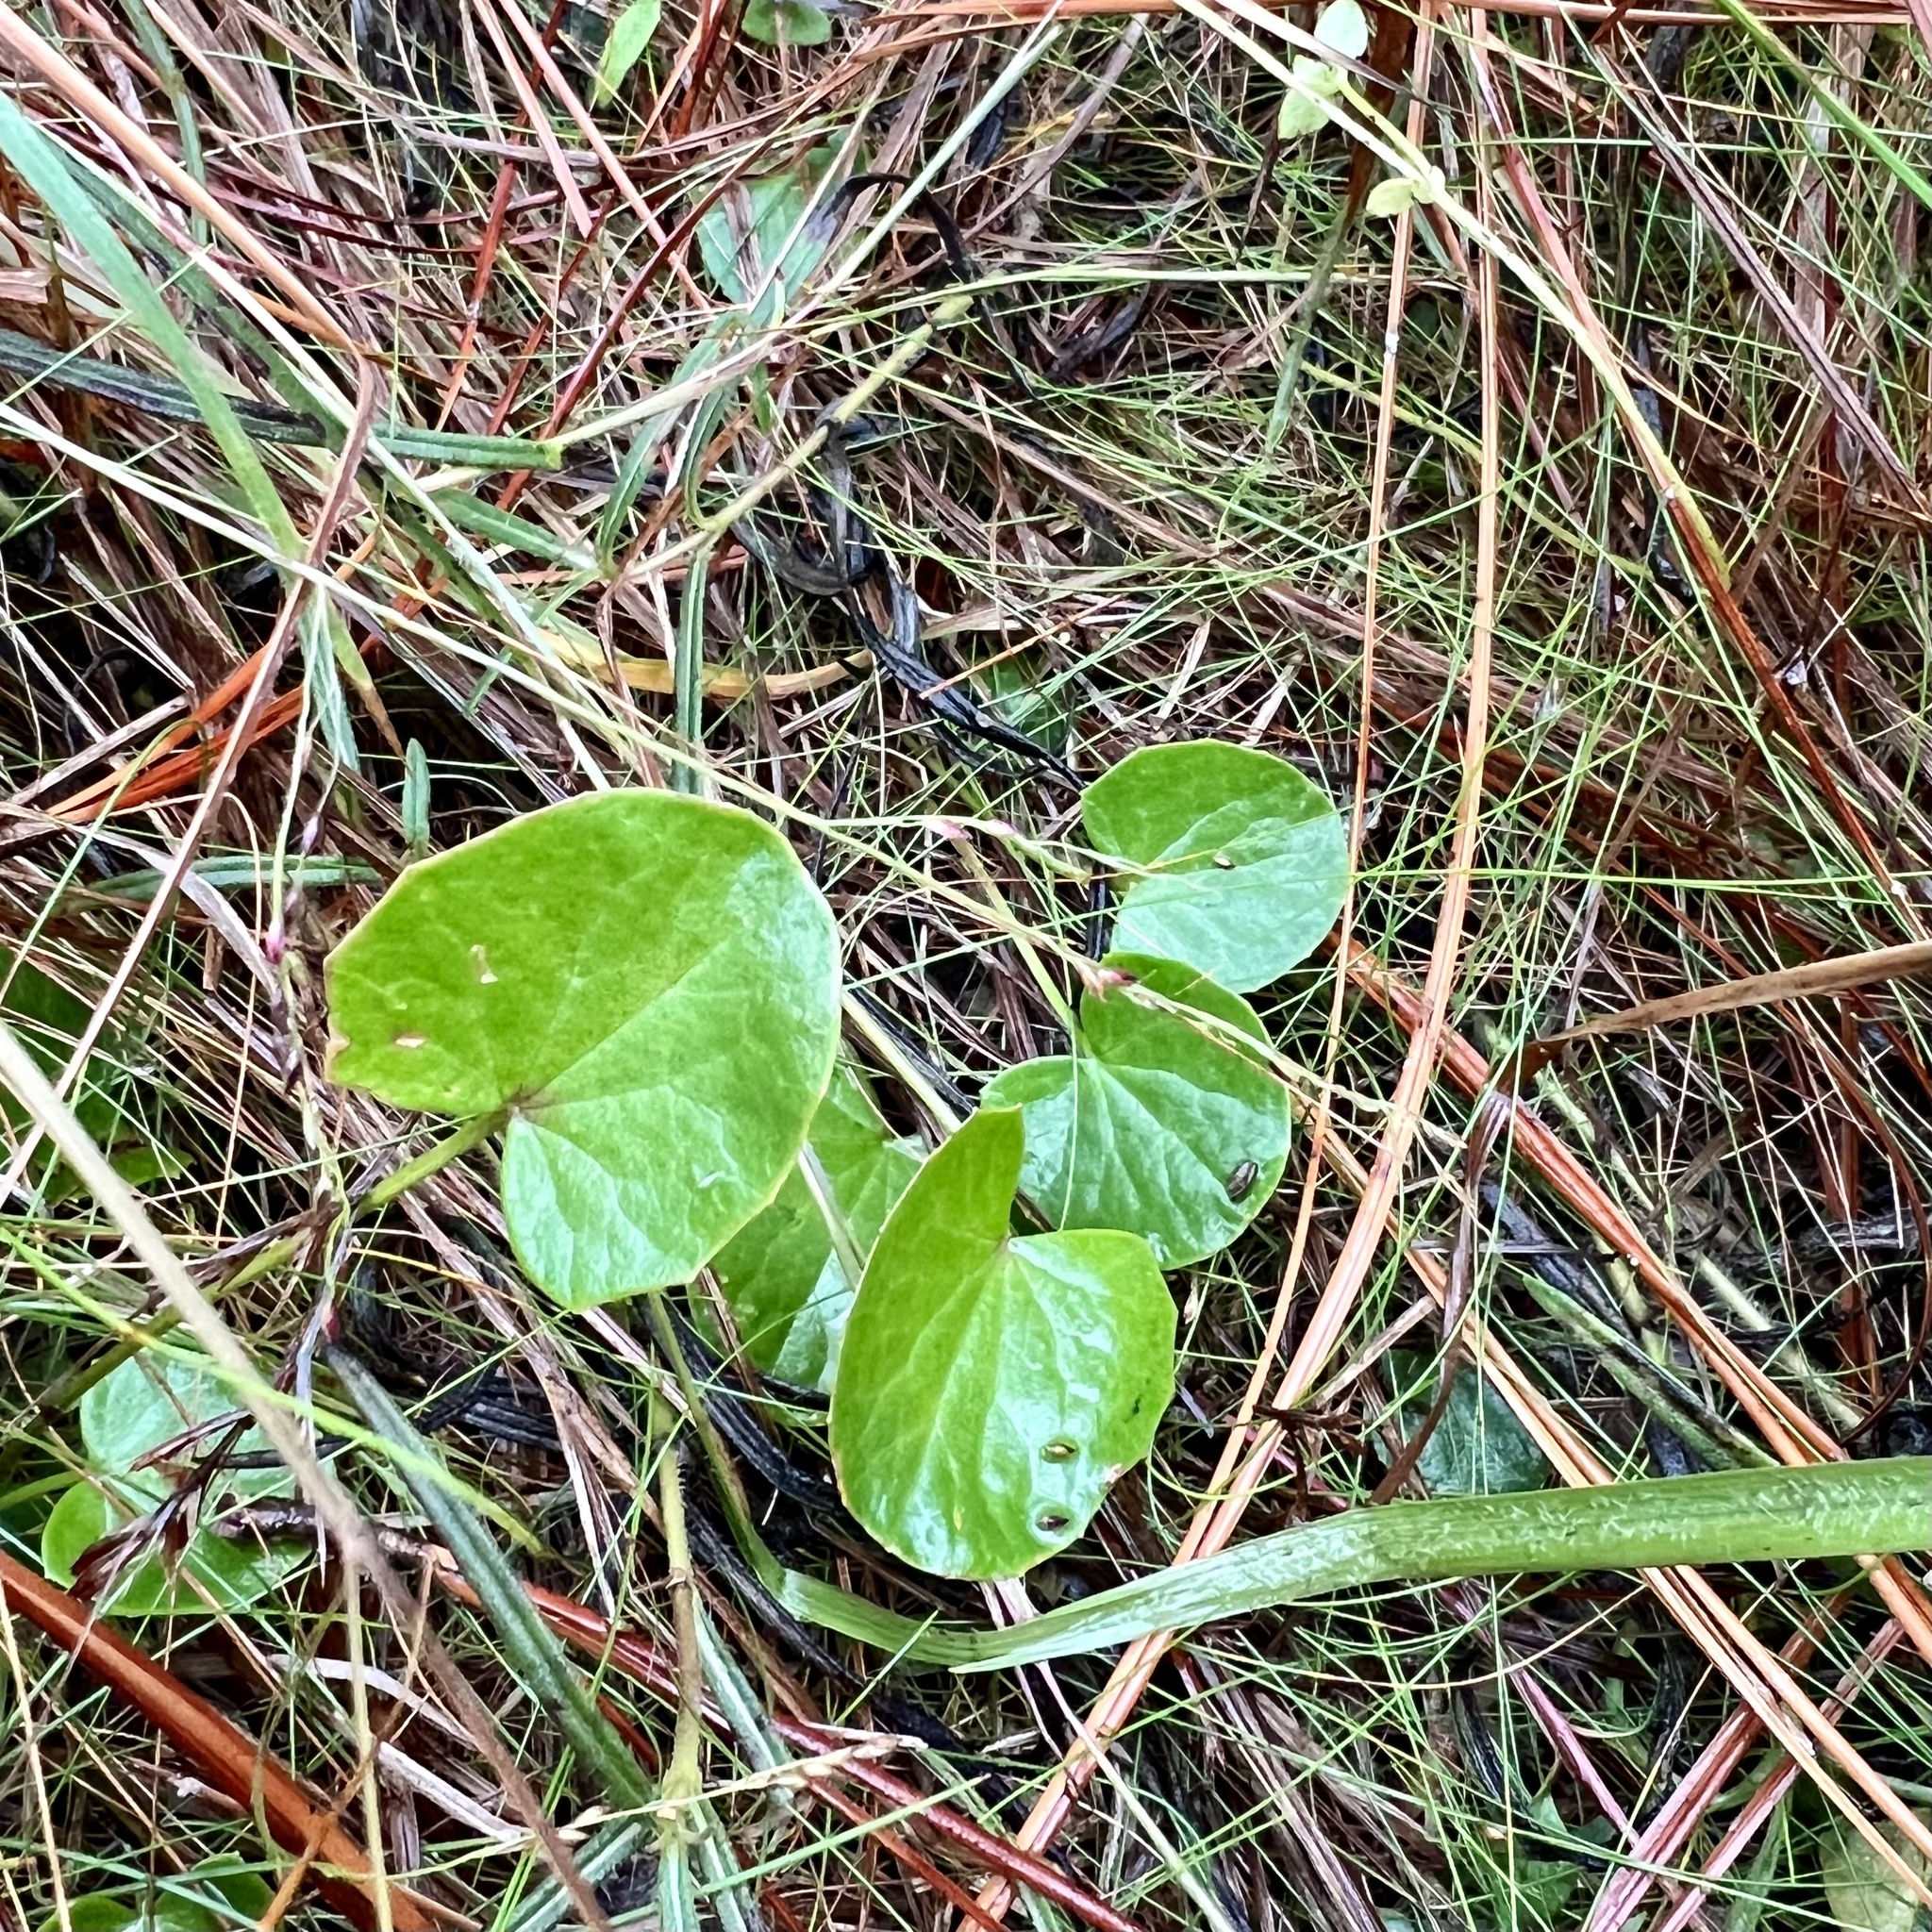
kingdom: Plantae
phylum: Tracheophyta
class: Magnoliopsida
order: Apiales
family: Apiaceae
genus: Centella
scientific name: Centella erecta
